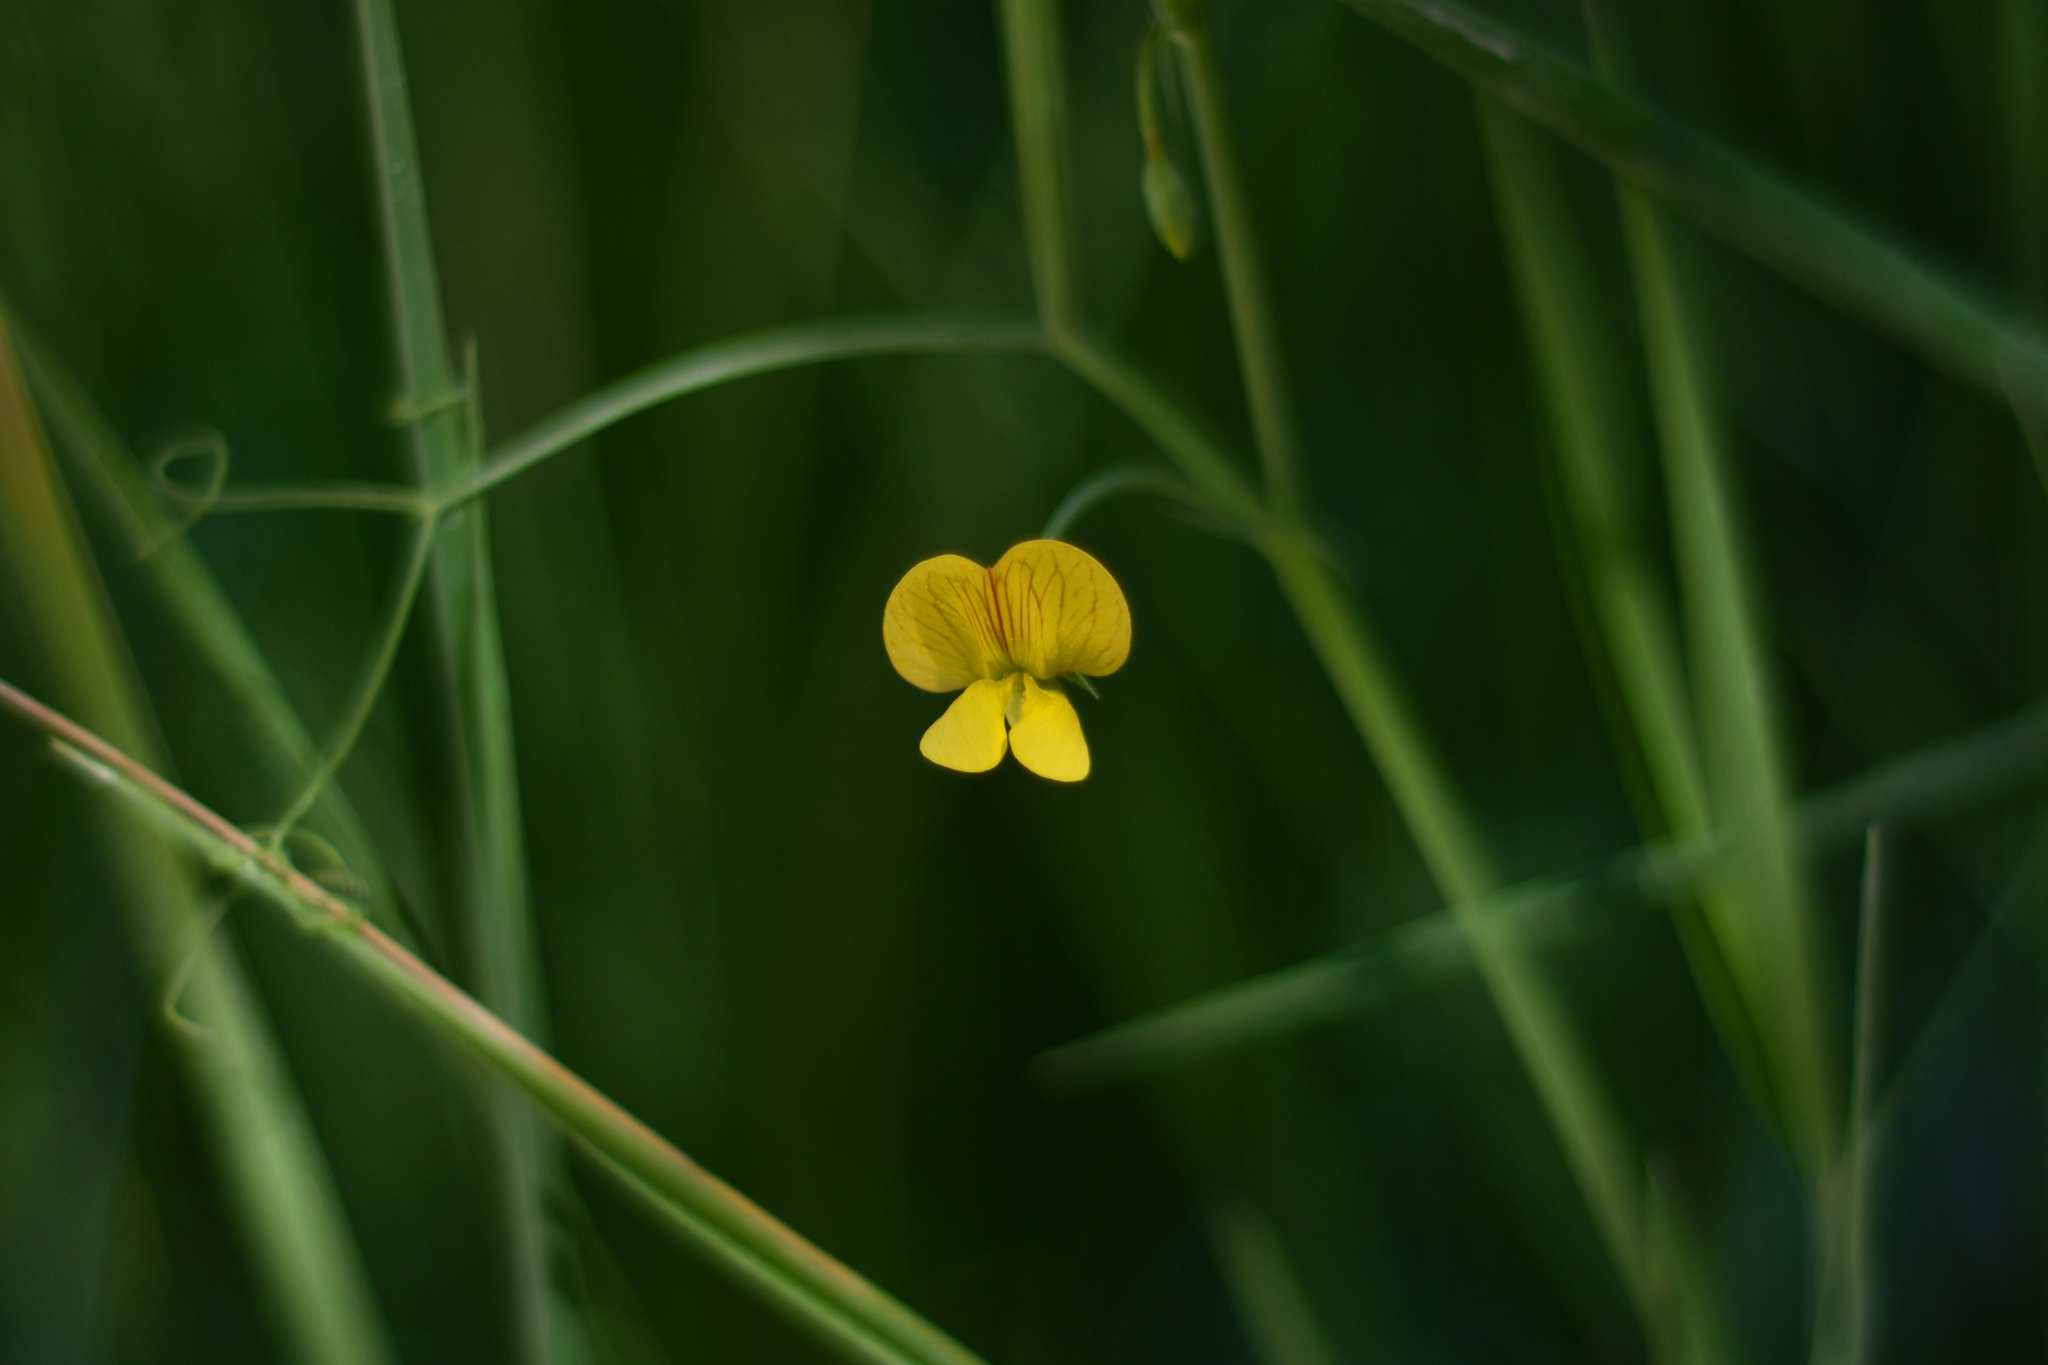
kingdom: Plantae
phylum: Tracheophyta
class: Magnoliopsida
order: Fabales
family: Fabaceae
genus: Lathyrus
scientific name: Lathyrus annuus
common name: Fodder pea
